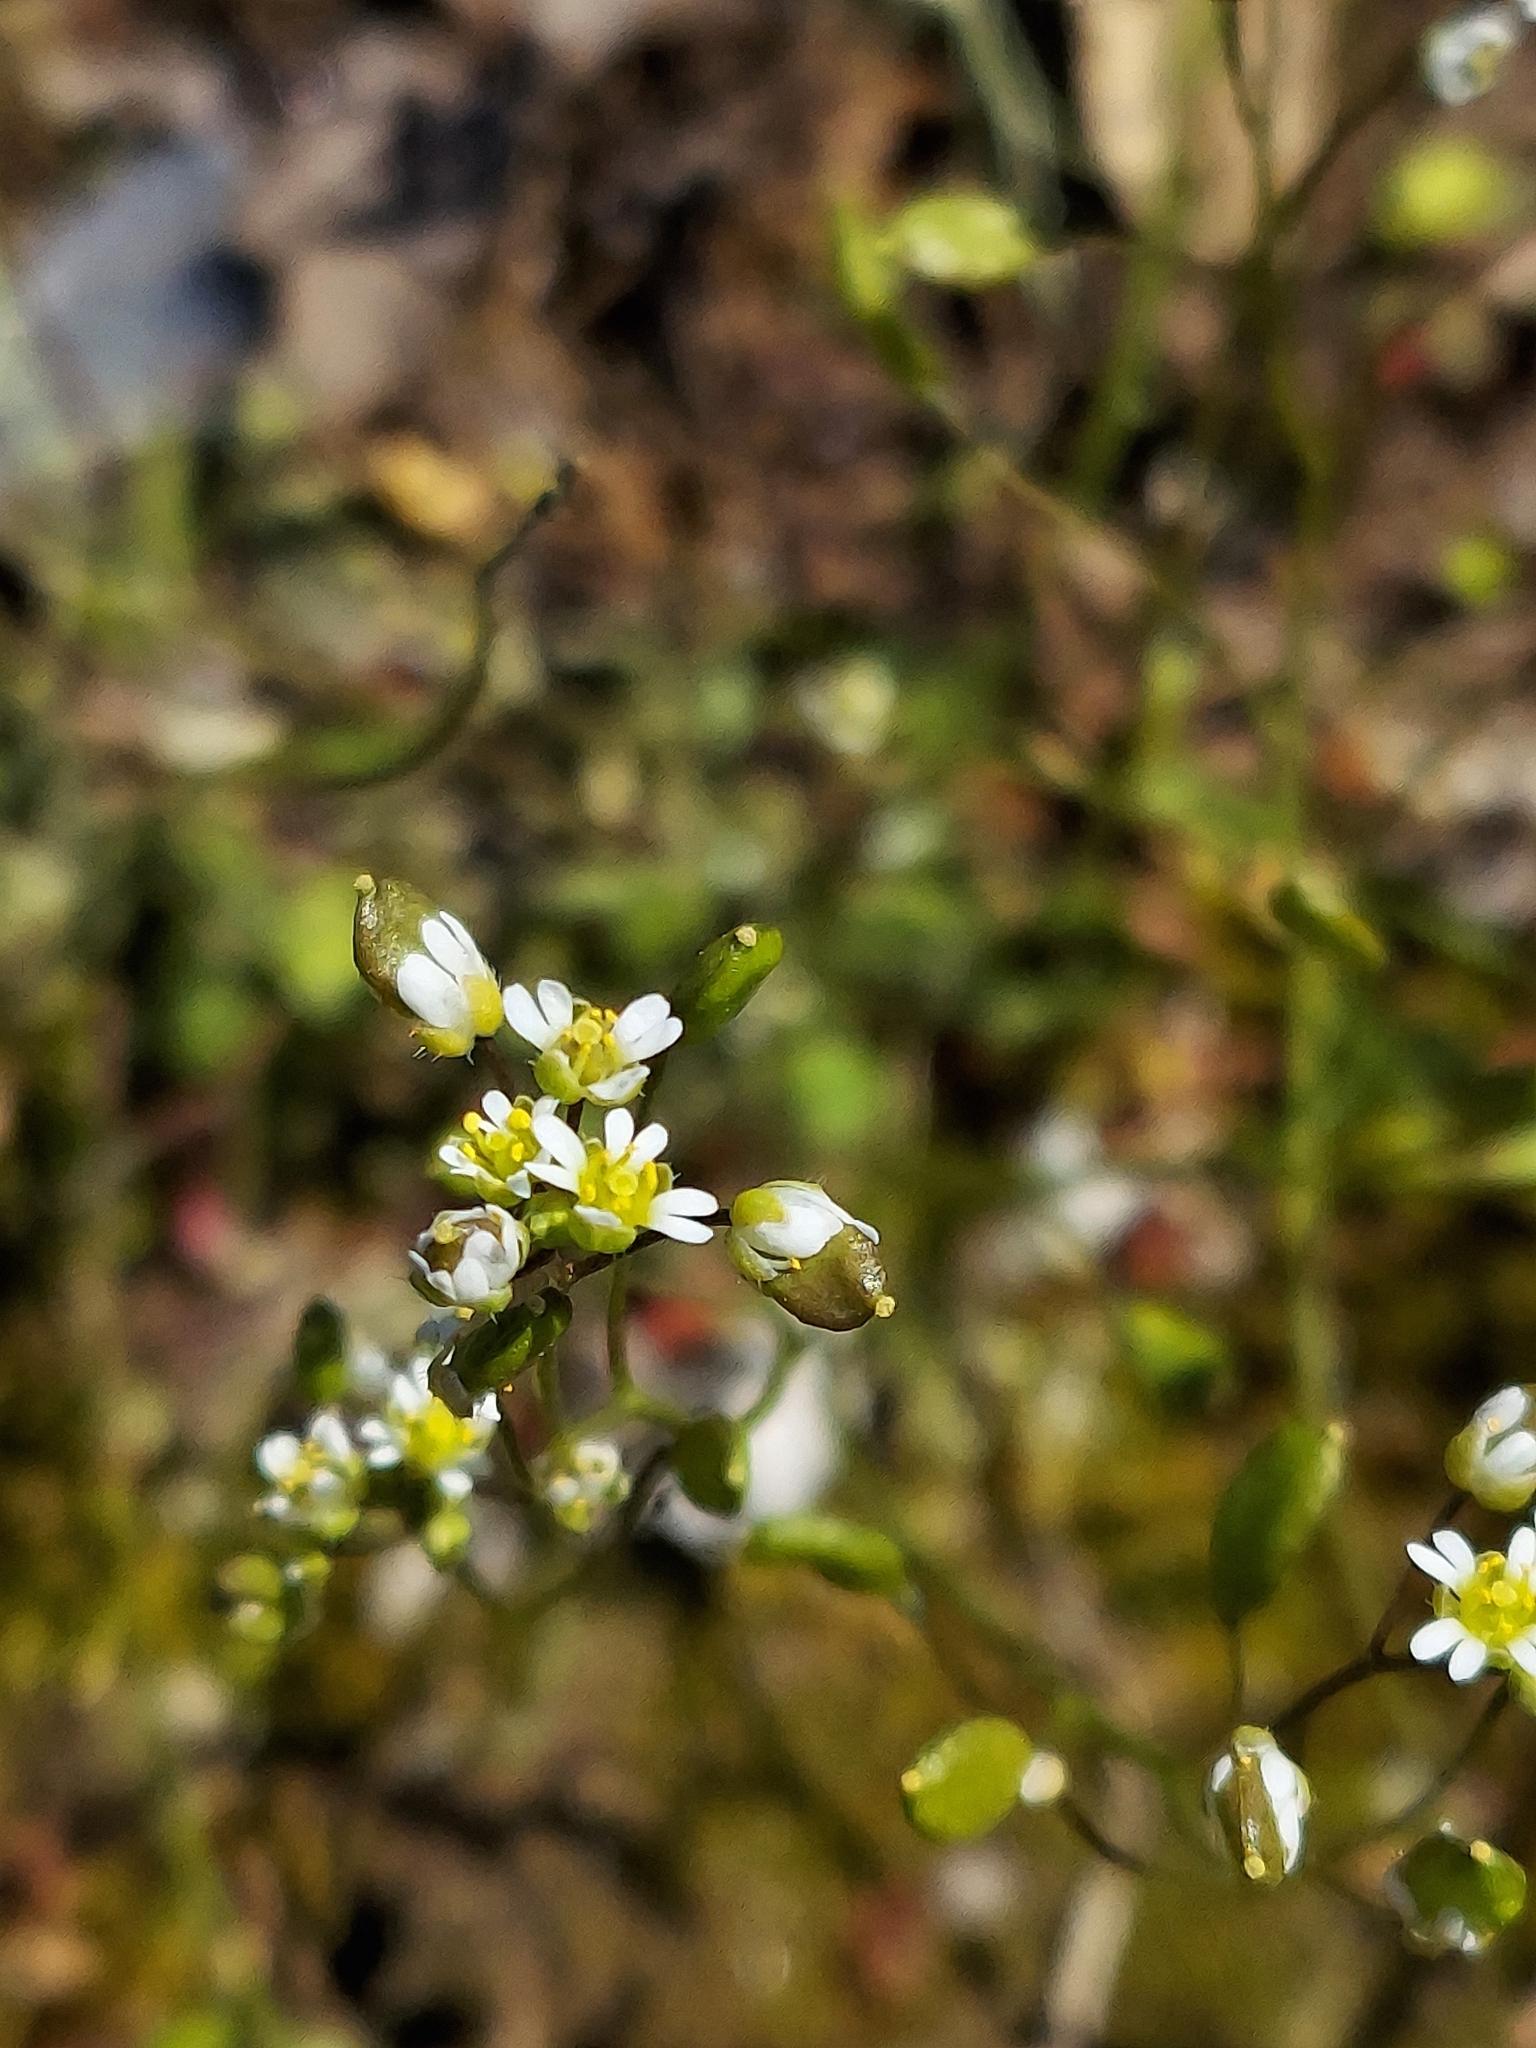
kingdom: Plantae
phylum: Tracheophyta
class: Magnoliopsida
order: Brassicales
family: Brassicaceae
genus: Draba
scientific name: Draba verna
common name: Spring draba
